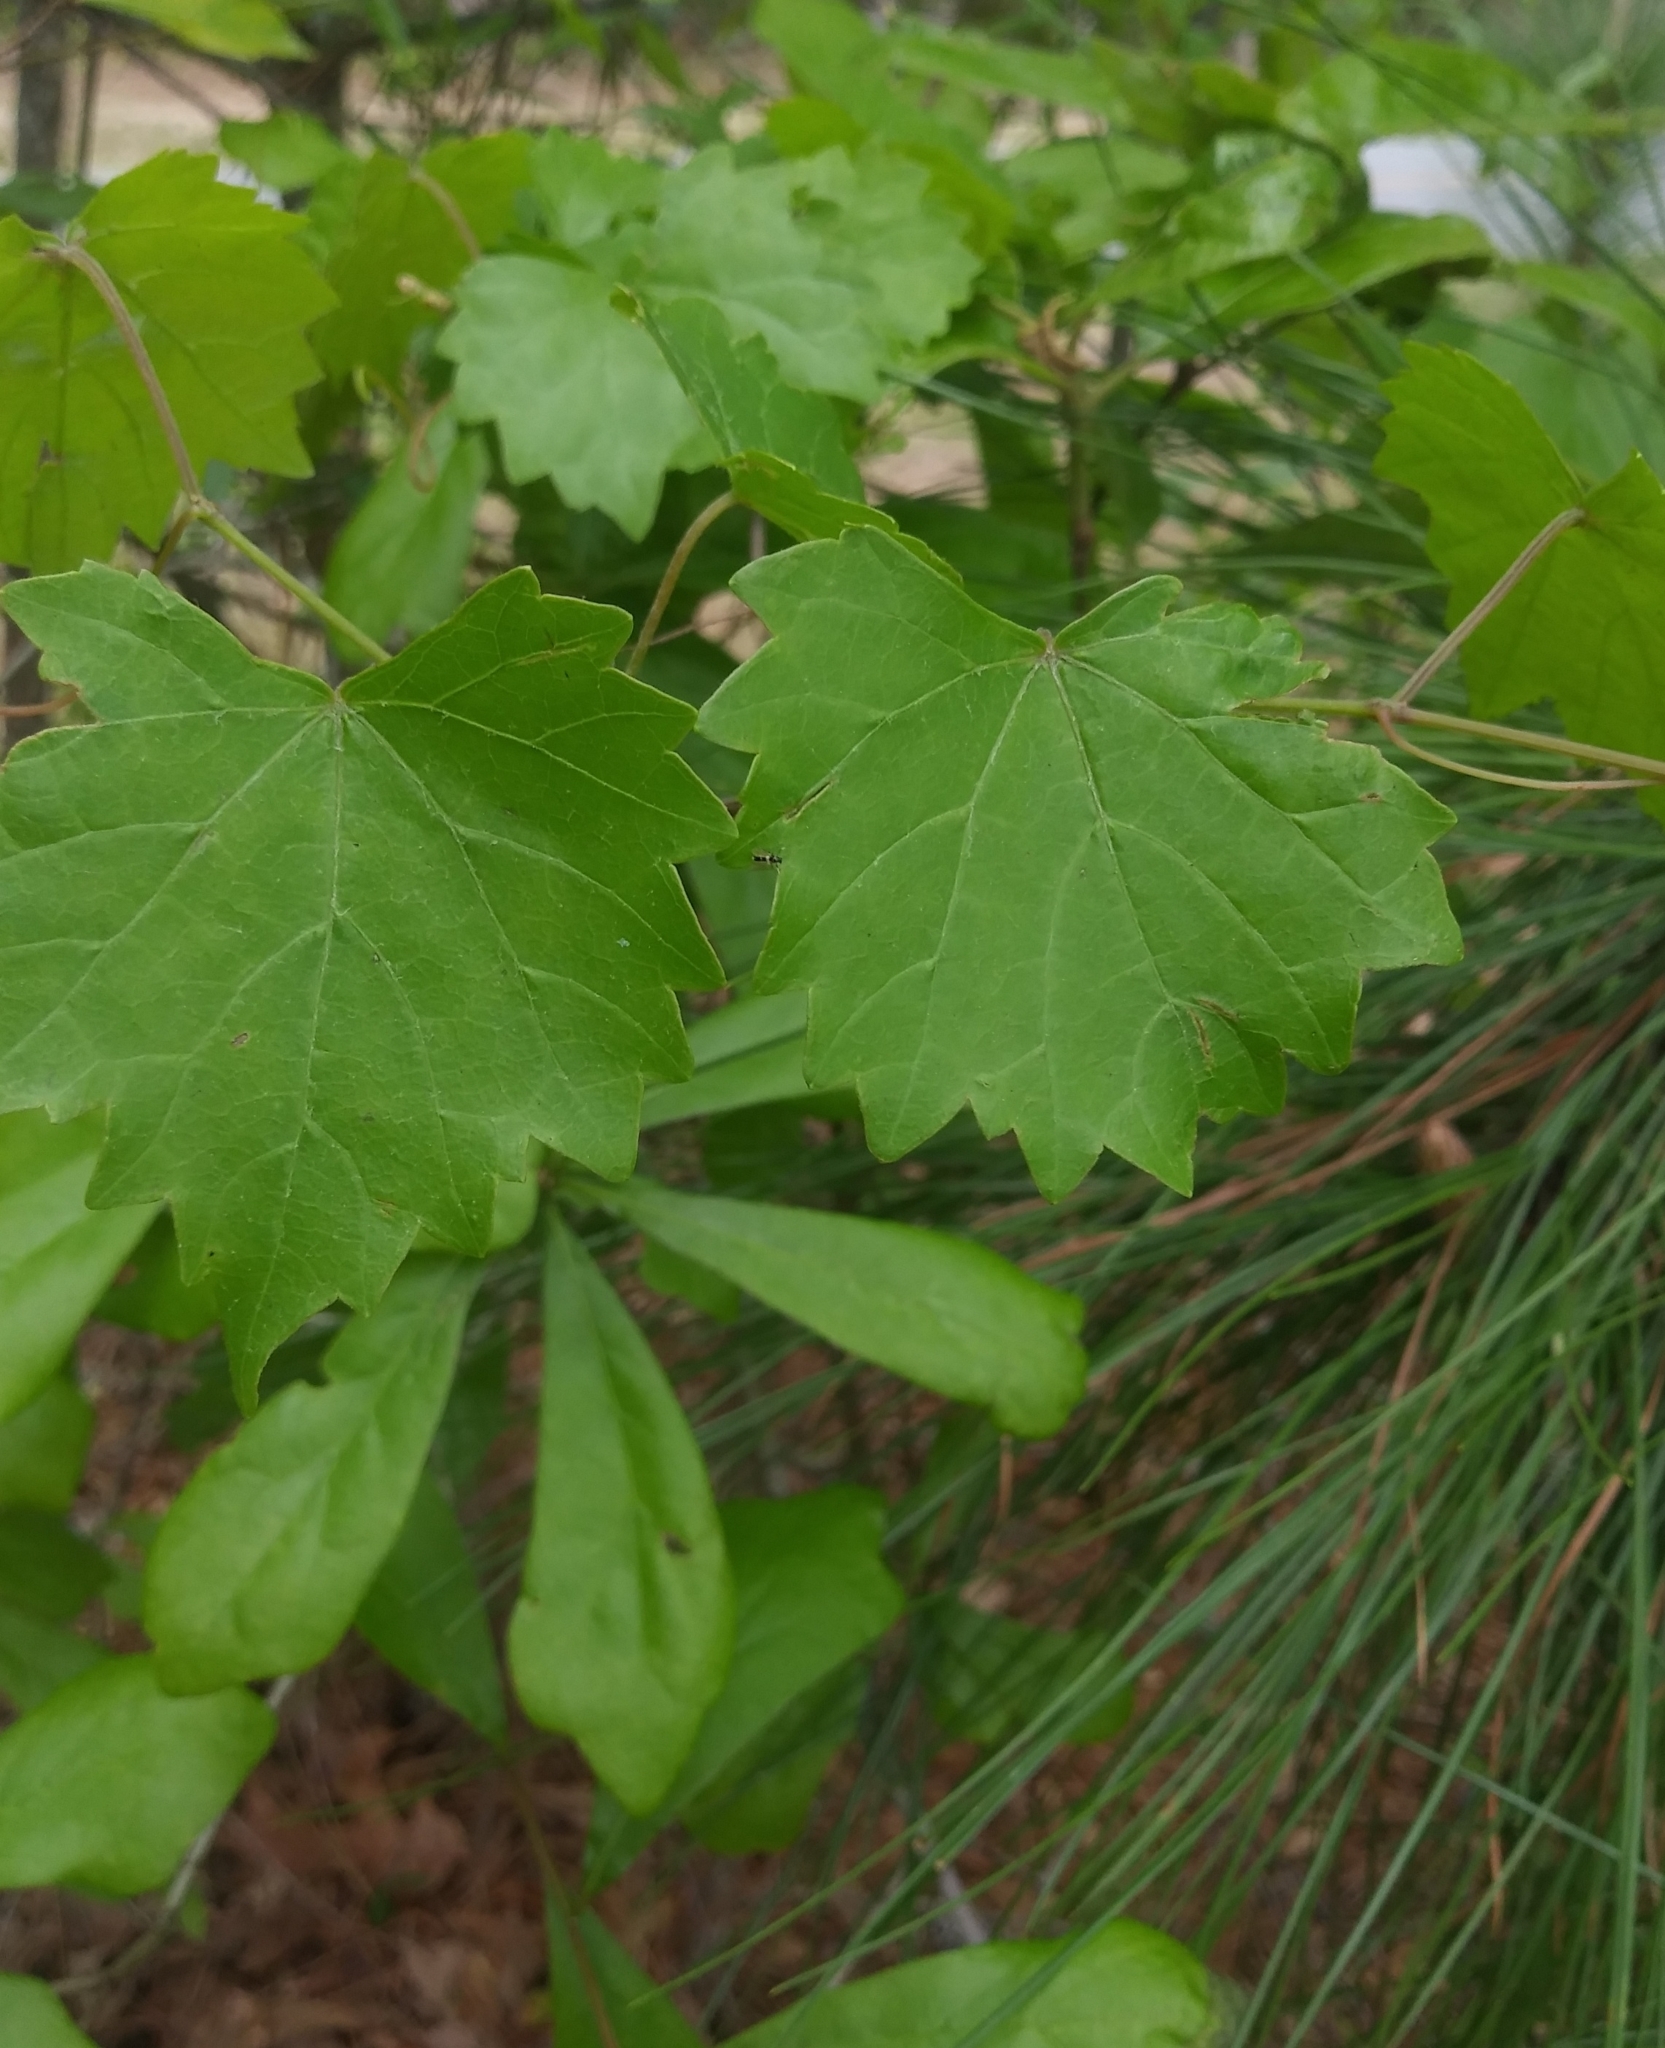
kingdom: Plantae
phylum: Tracheophyta
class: Magnoliopsida
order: Vitales
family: Vitaceae
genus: Vitis
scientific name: Vitis rotundifolia
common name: Muscadine grape
